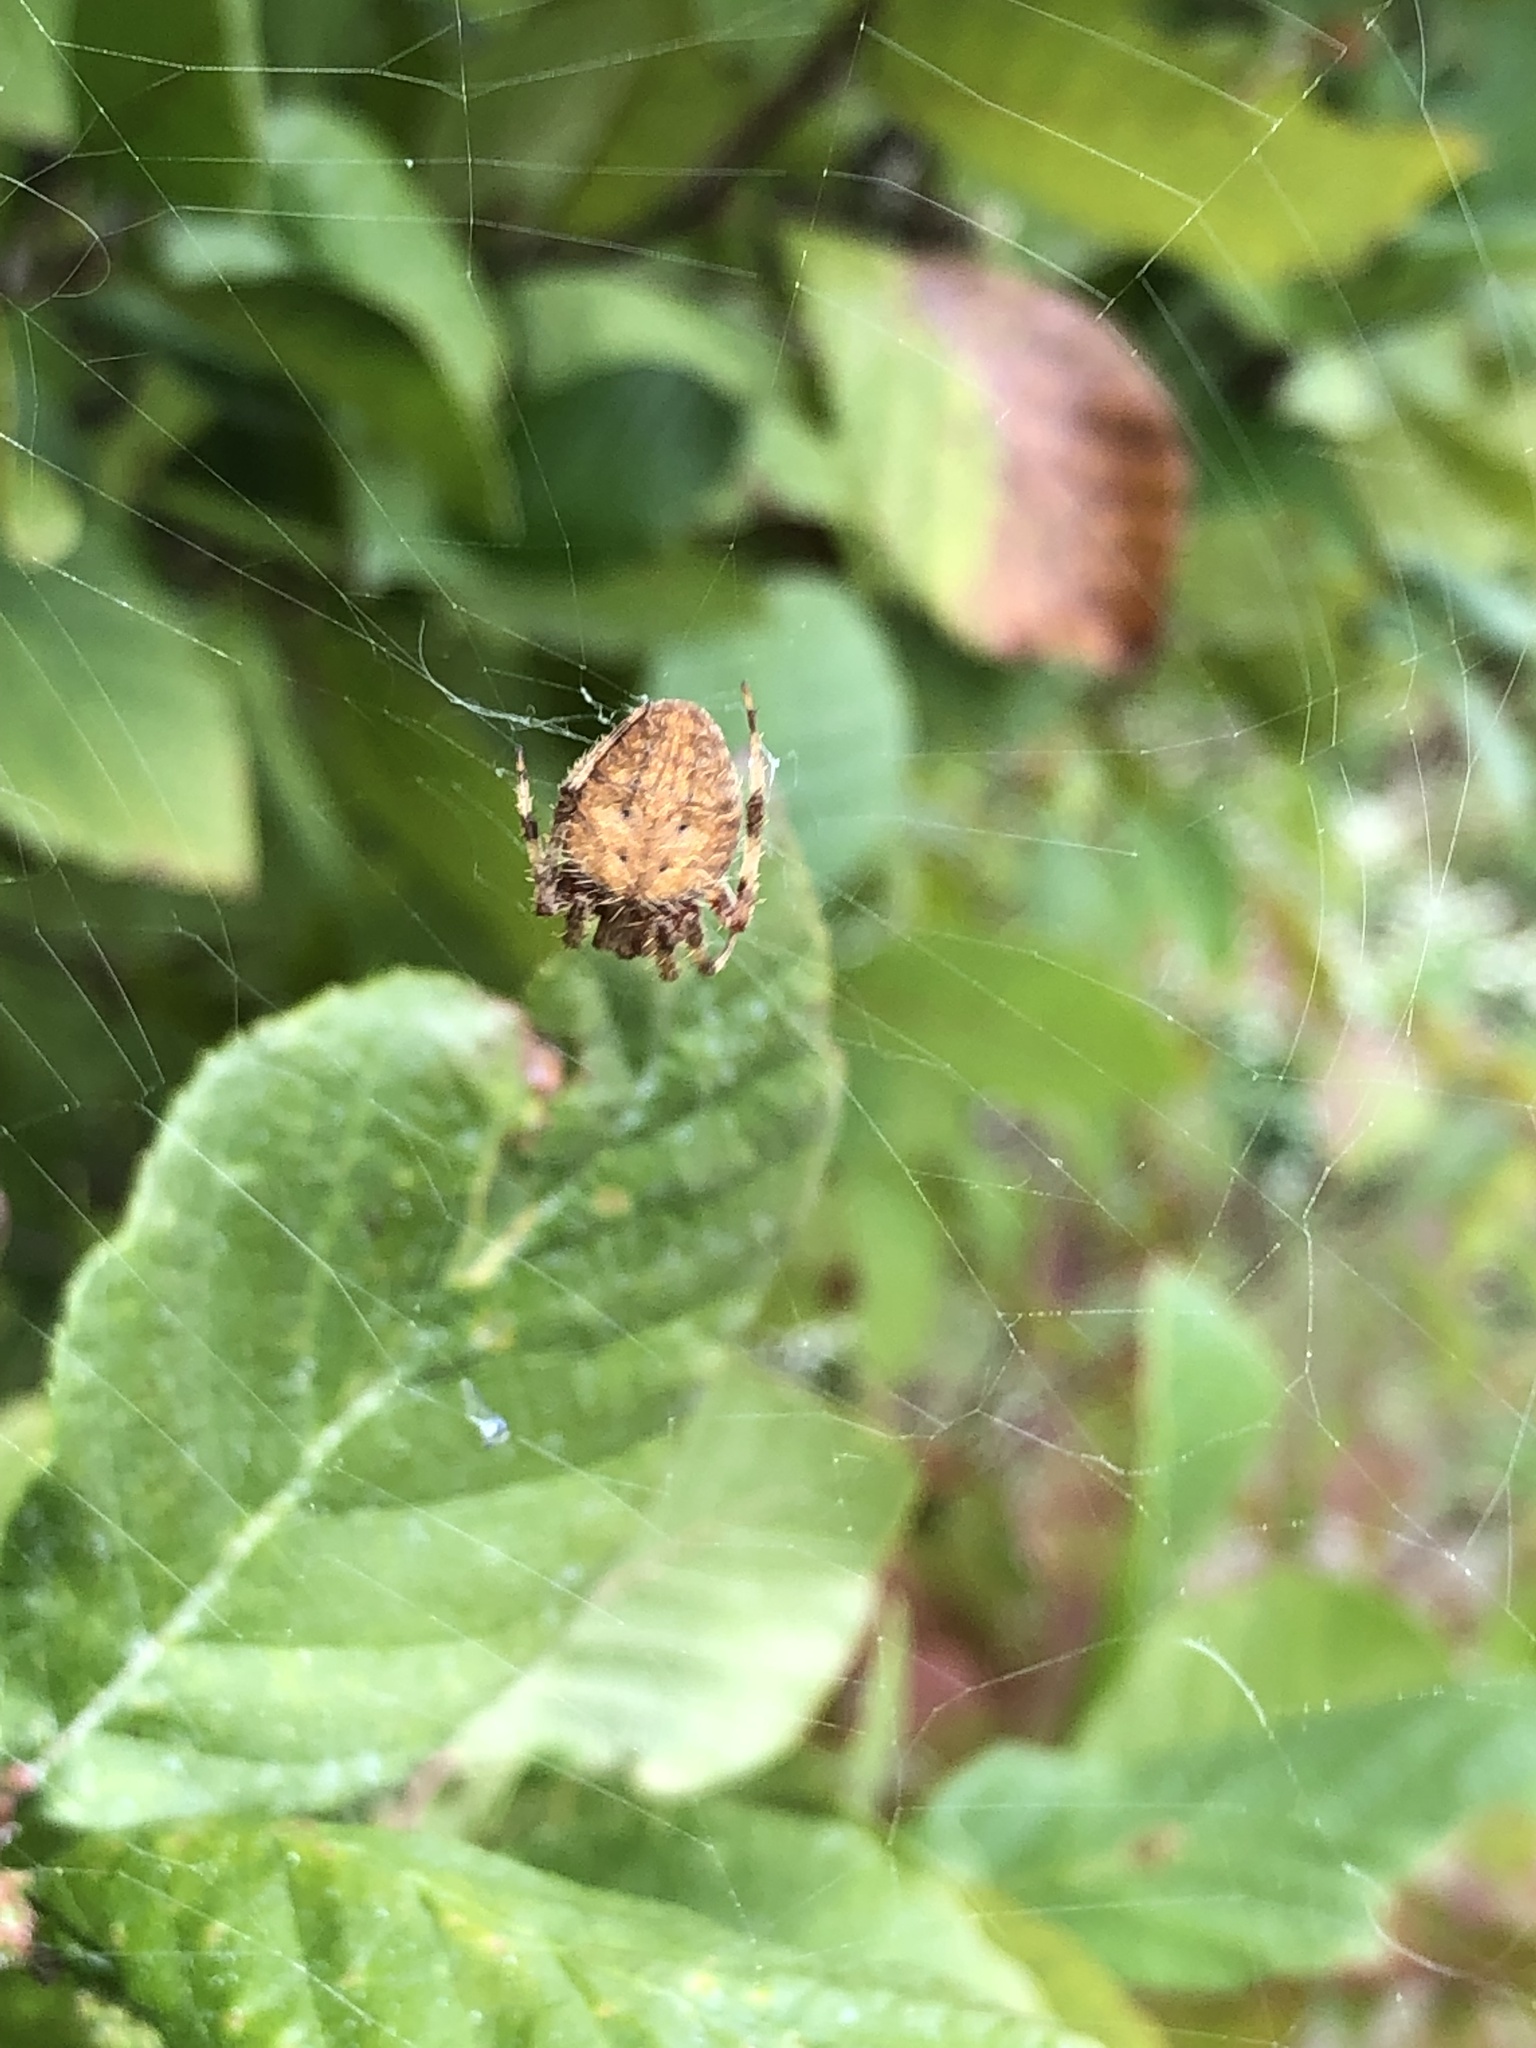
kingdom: Animalia
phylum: Arthropoda
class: Arachnida
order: Araneae
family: Araneidae
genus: Neoscona
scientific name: Neoscona crucifera
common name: Spotted orbweaver
